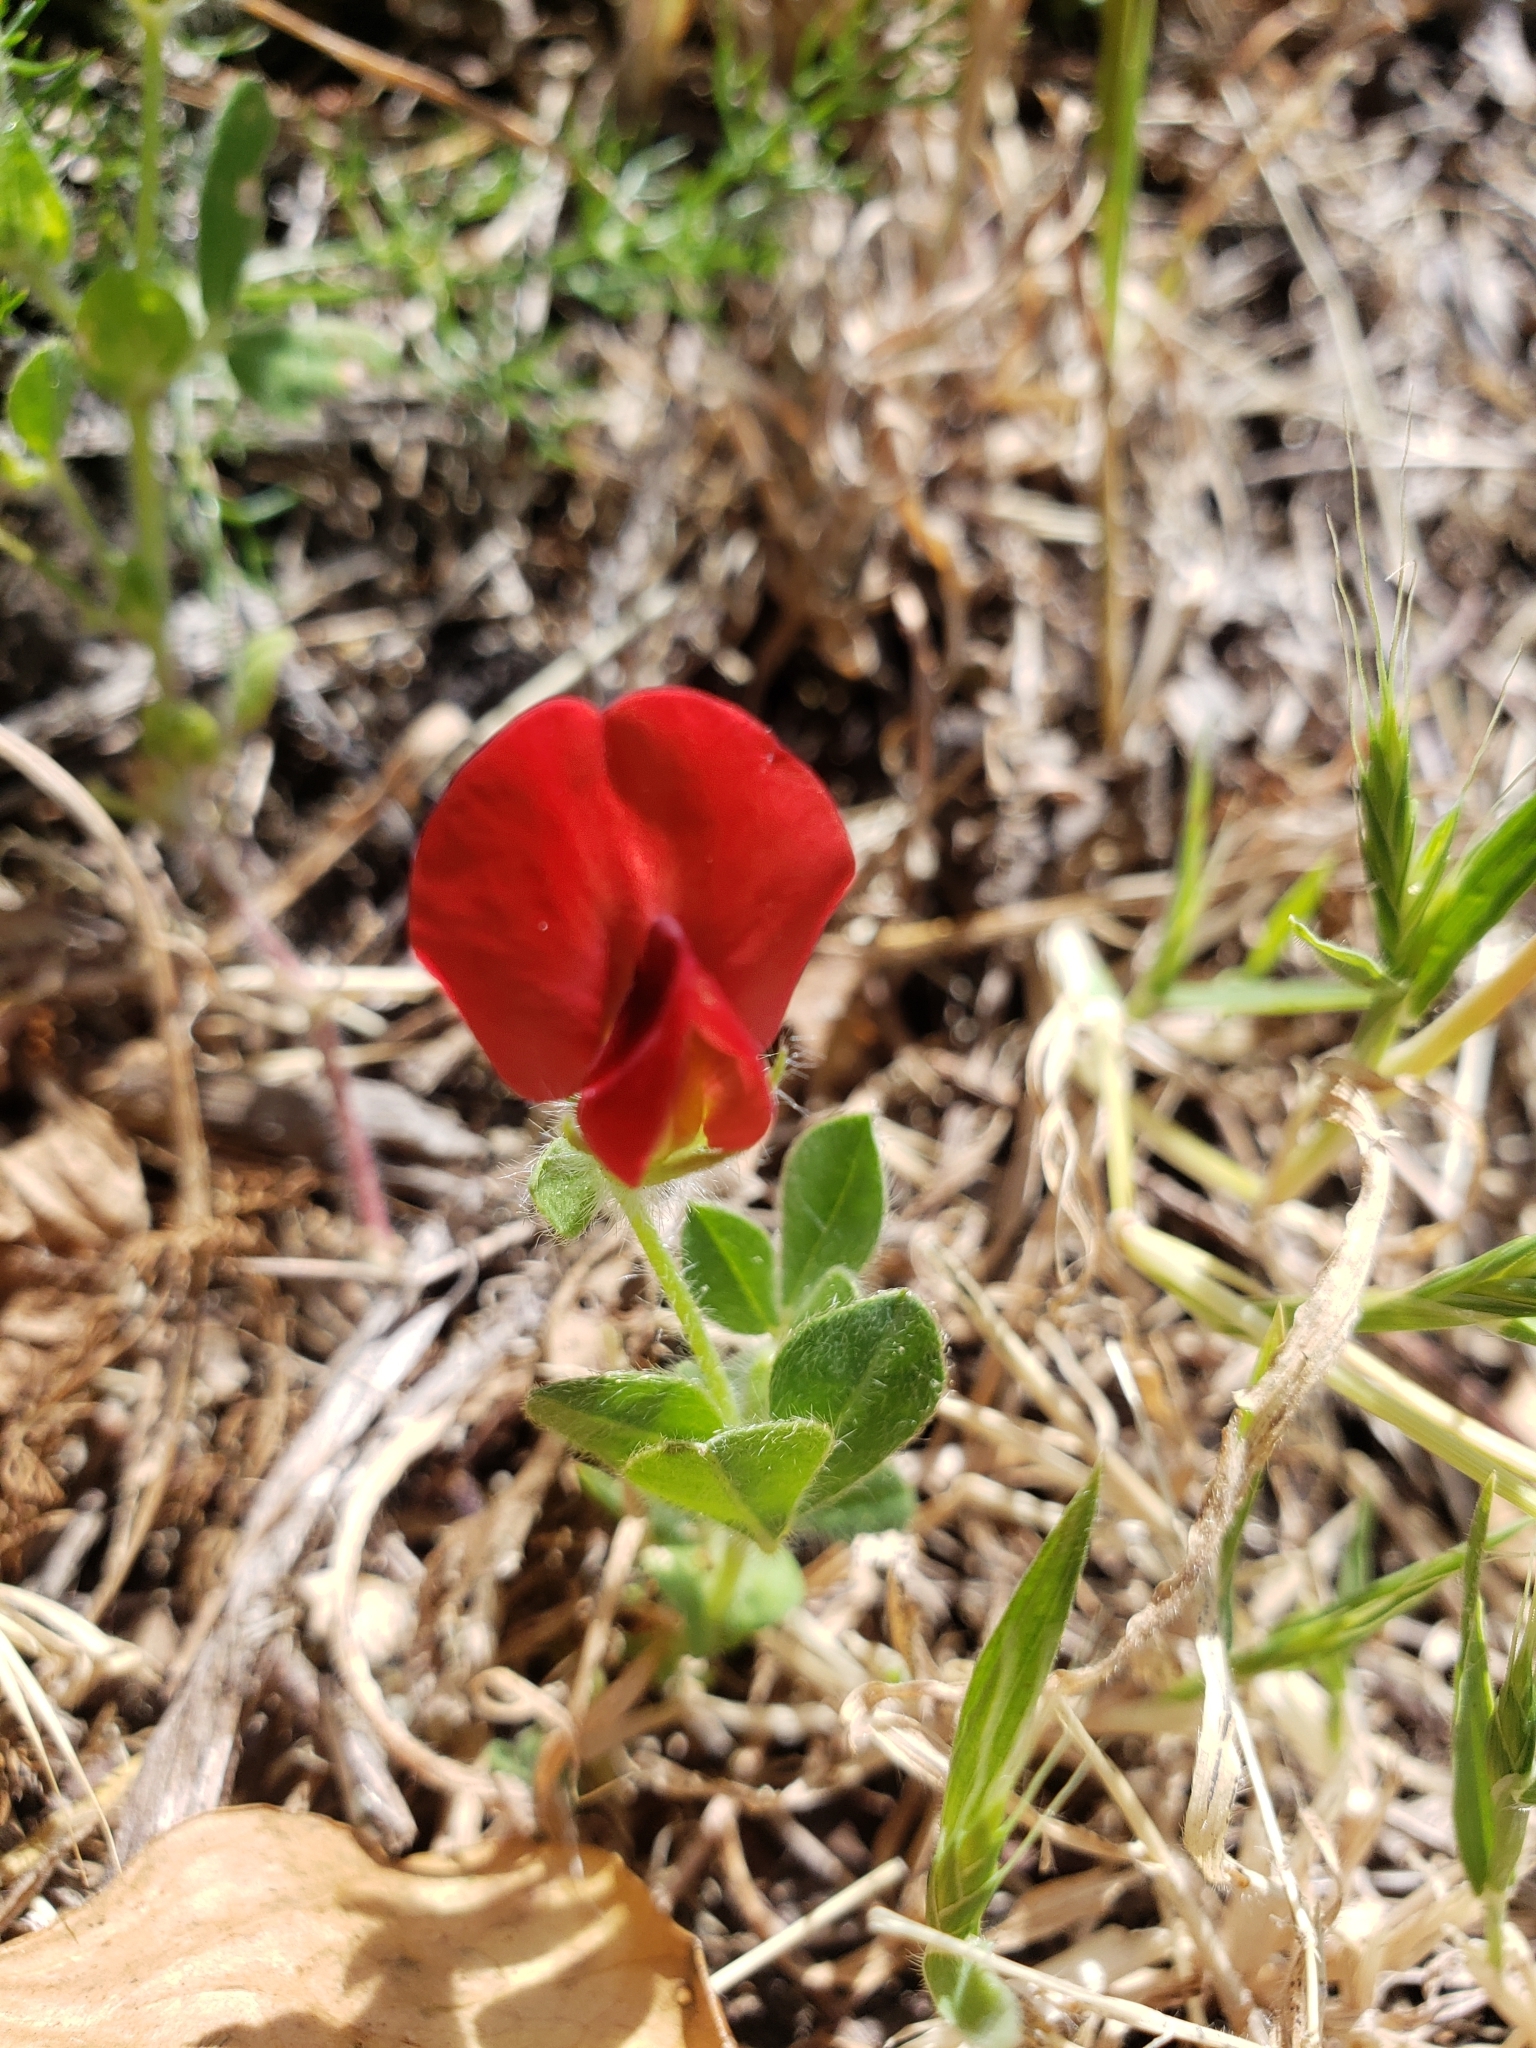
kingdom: Plantae
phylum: Tracheophyta
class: Magnoliopsida
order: Fabales
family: Fabaceae
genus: Lotus
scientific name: Lotus tetragonolobus
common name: Asparagus-pea
